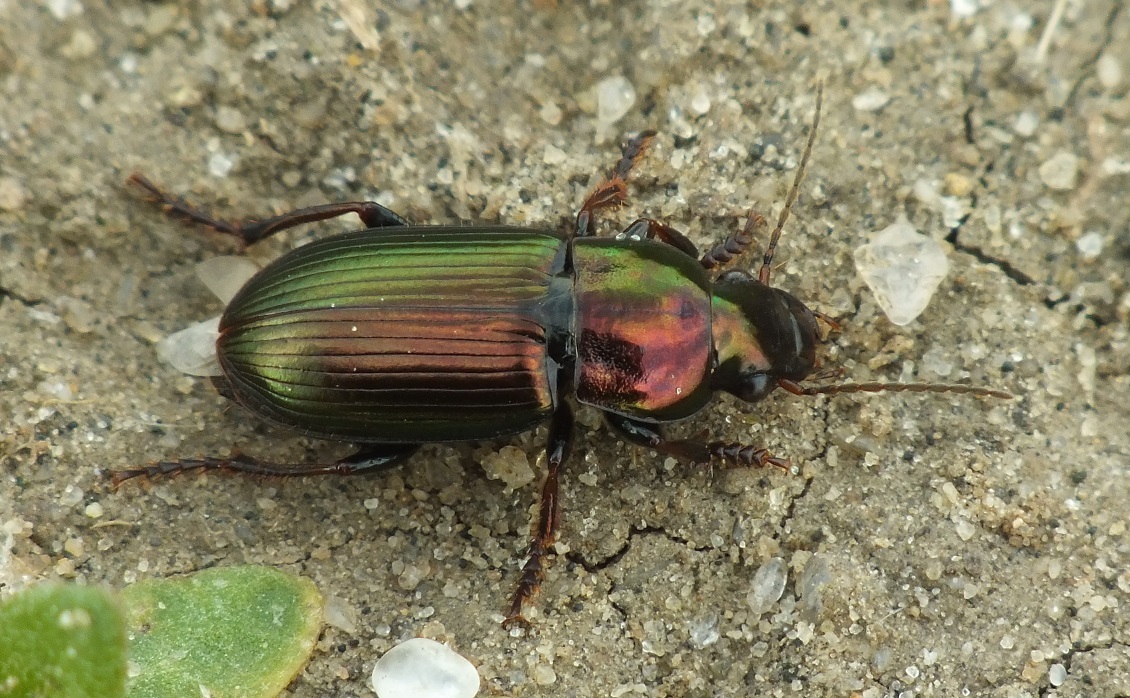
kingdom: Animalia
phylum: Arthropoda
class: Insecta
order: Coleoptera
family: Carabidae
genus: Harpalus
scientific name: Harpalus distinguendus
